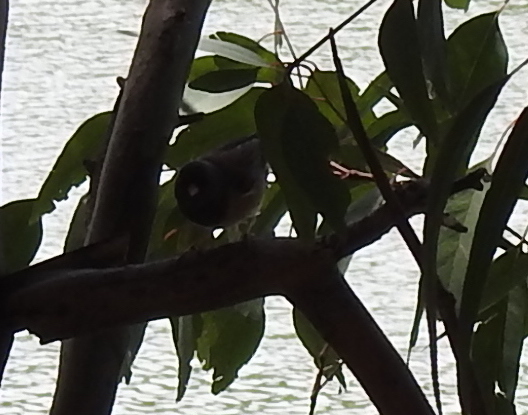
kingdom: Animalia
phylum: Chordata
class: Aves
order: Passeriformes
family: Passerellidae
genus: Junco
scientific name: Junco hyemalis
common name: Dark-eyed junco
